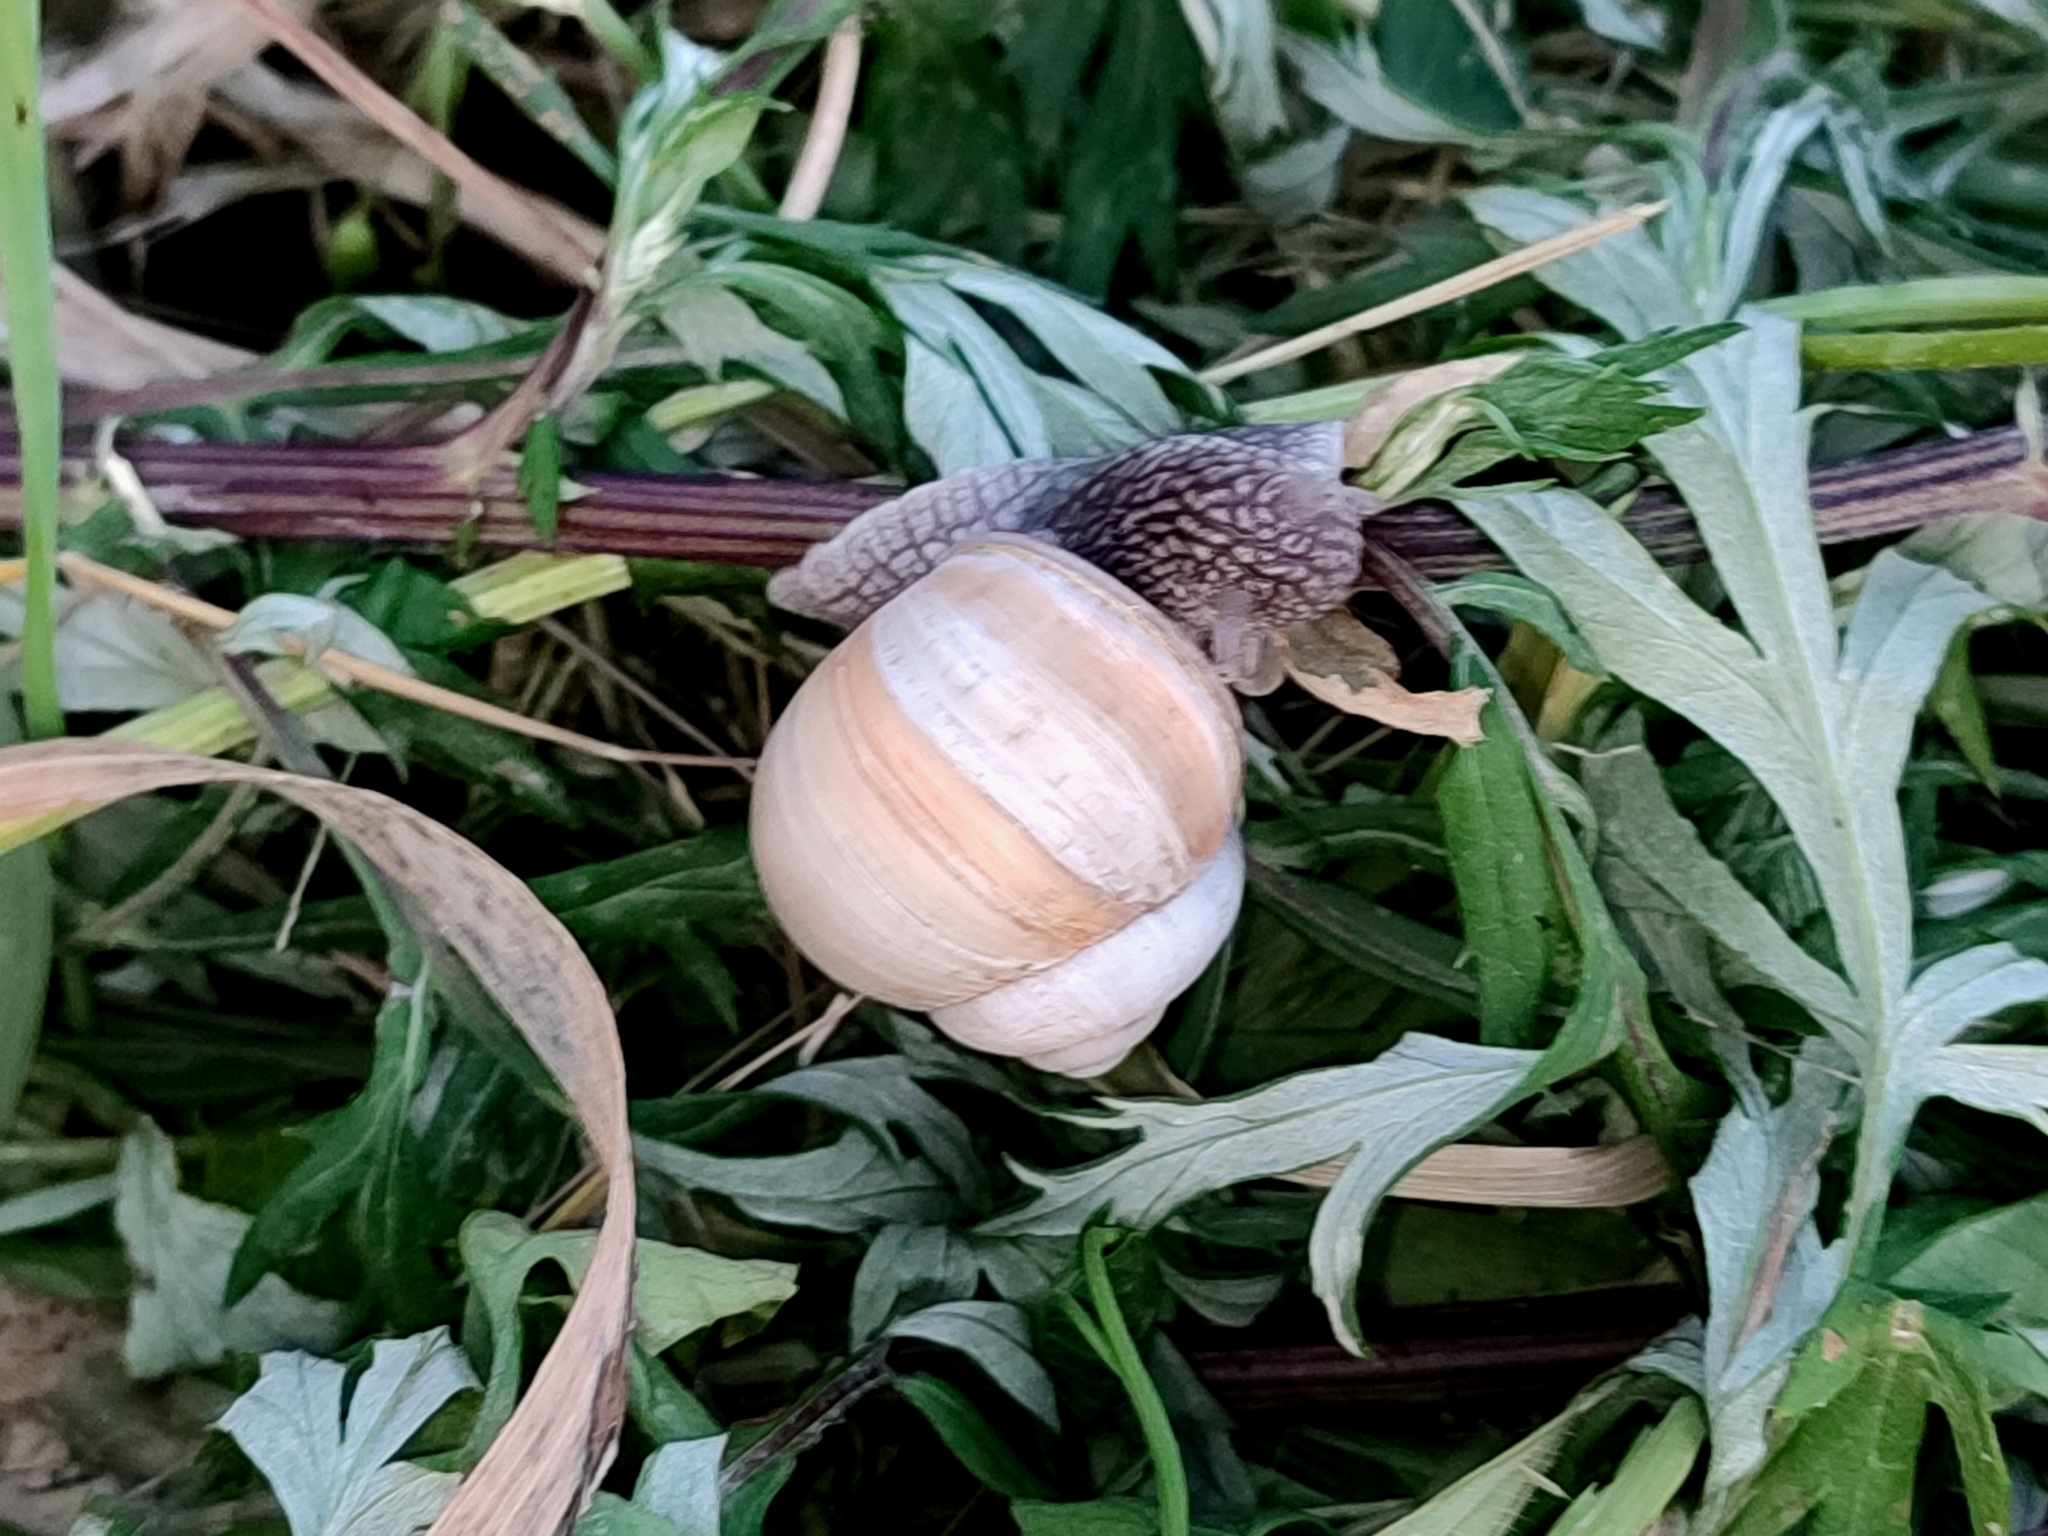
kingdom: Animalia
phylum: Mollusca
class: Gastropoda
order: Stylommatophora
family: Helicidae
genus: Helix
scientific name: Helix lutescens
